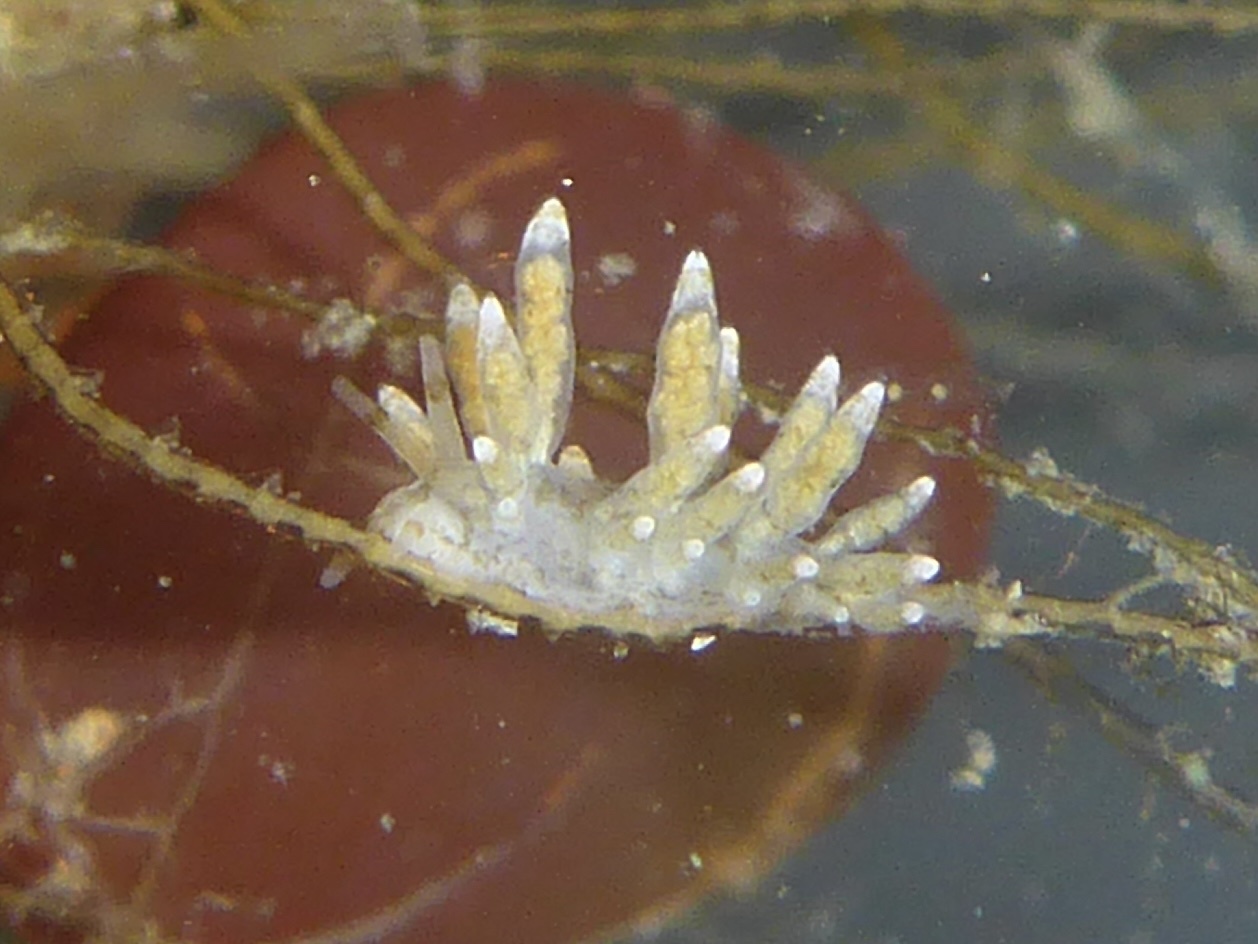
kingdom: Animalia
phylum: Mollusca
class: Gastropoda
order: Nudibranchia
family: Eubranchidae
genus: Eubranchus
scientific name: Eubranchus rustyus
